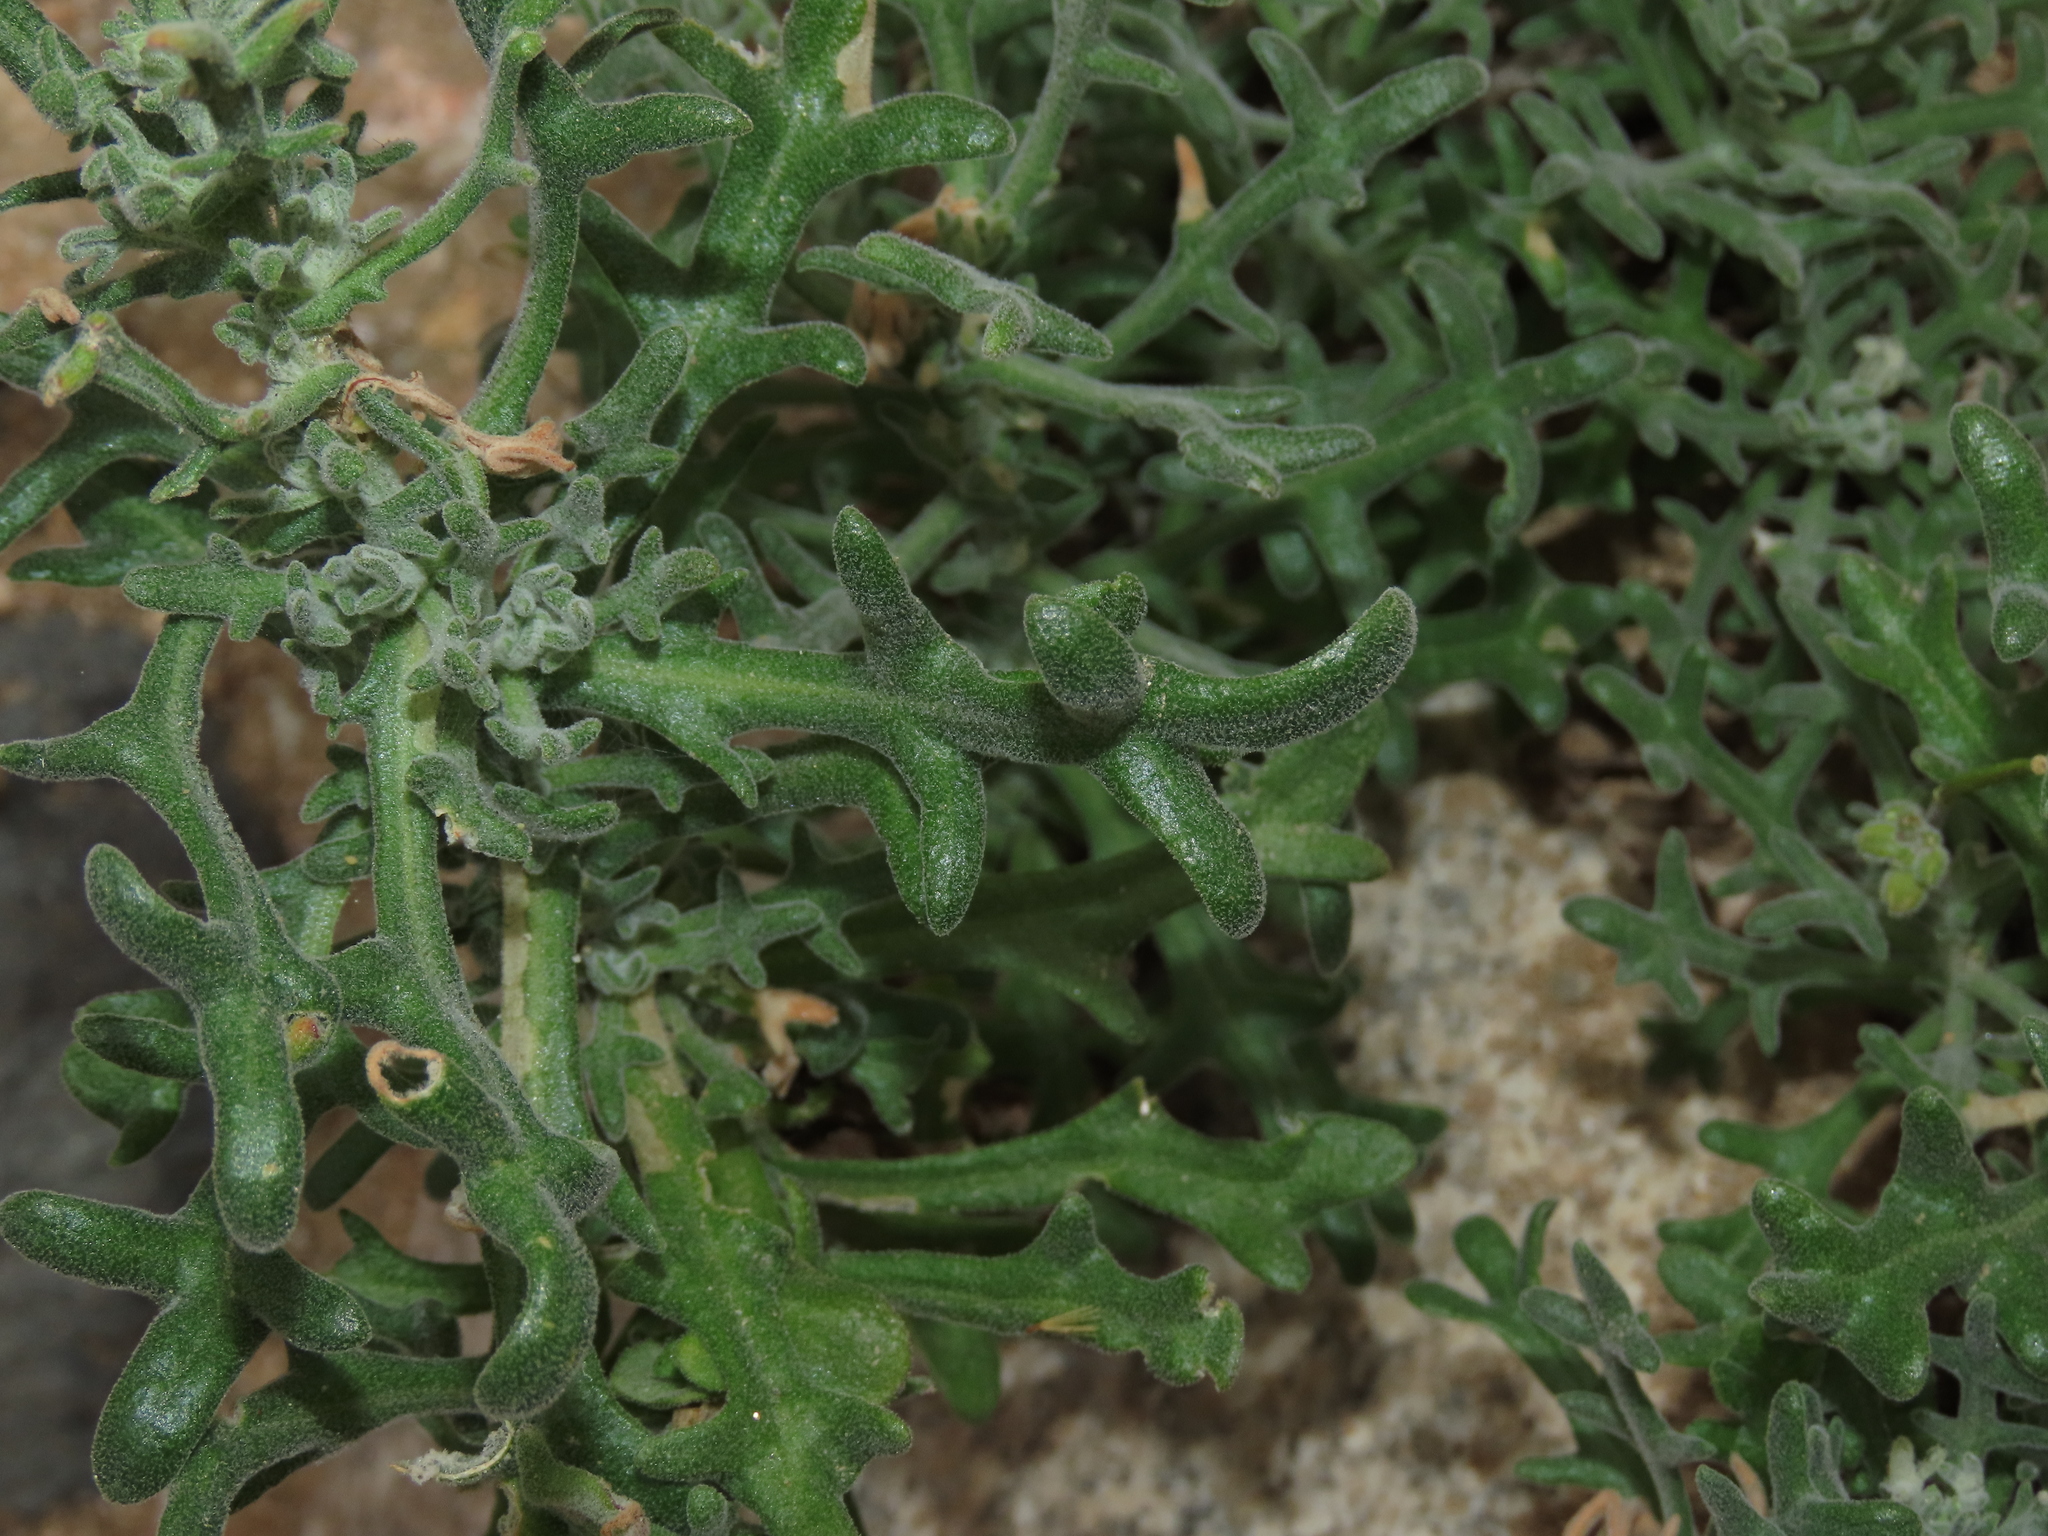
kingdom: Plantae
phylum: Tracheophyta
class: Magnoliopsida
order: Brassicales
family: Brassicaceae
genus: Mathewsia
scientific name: Mathewsia foliosa
